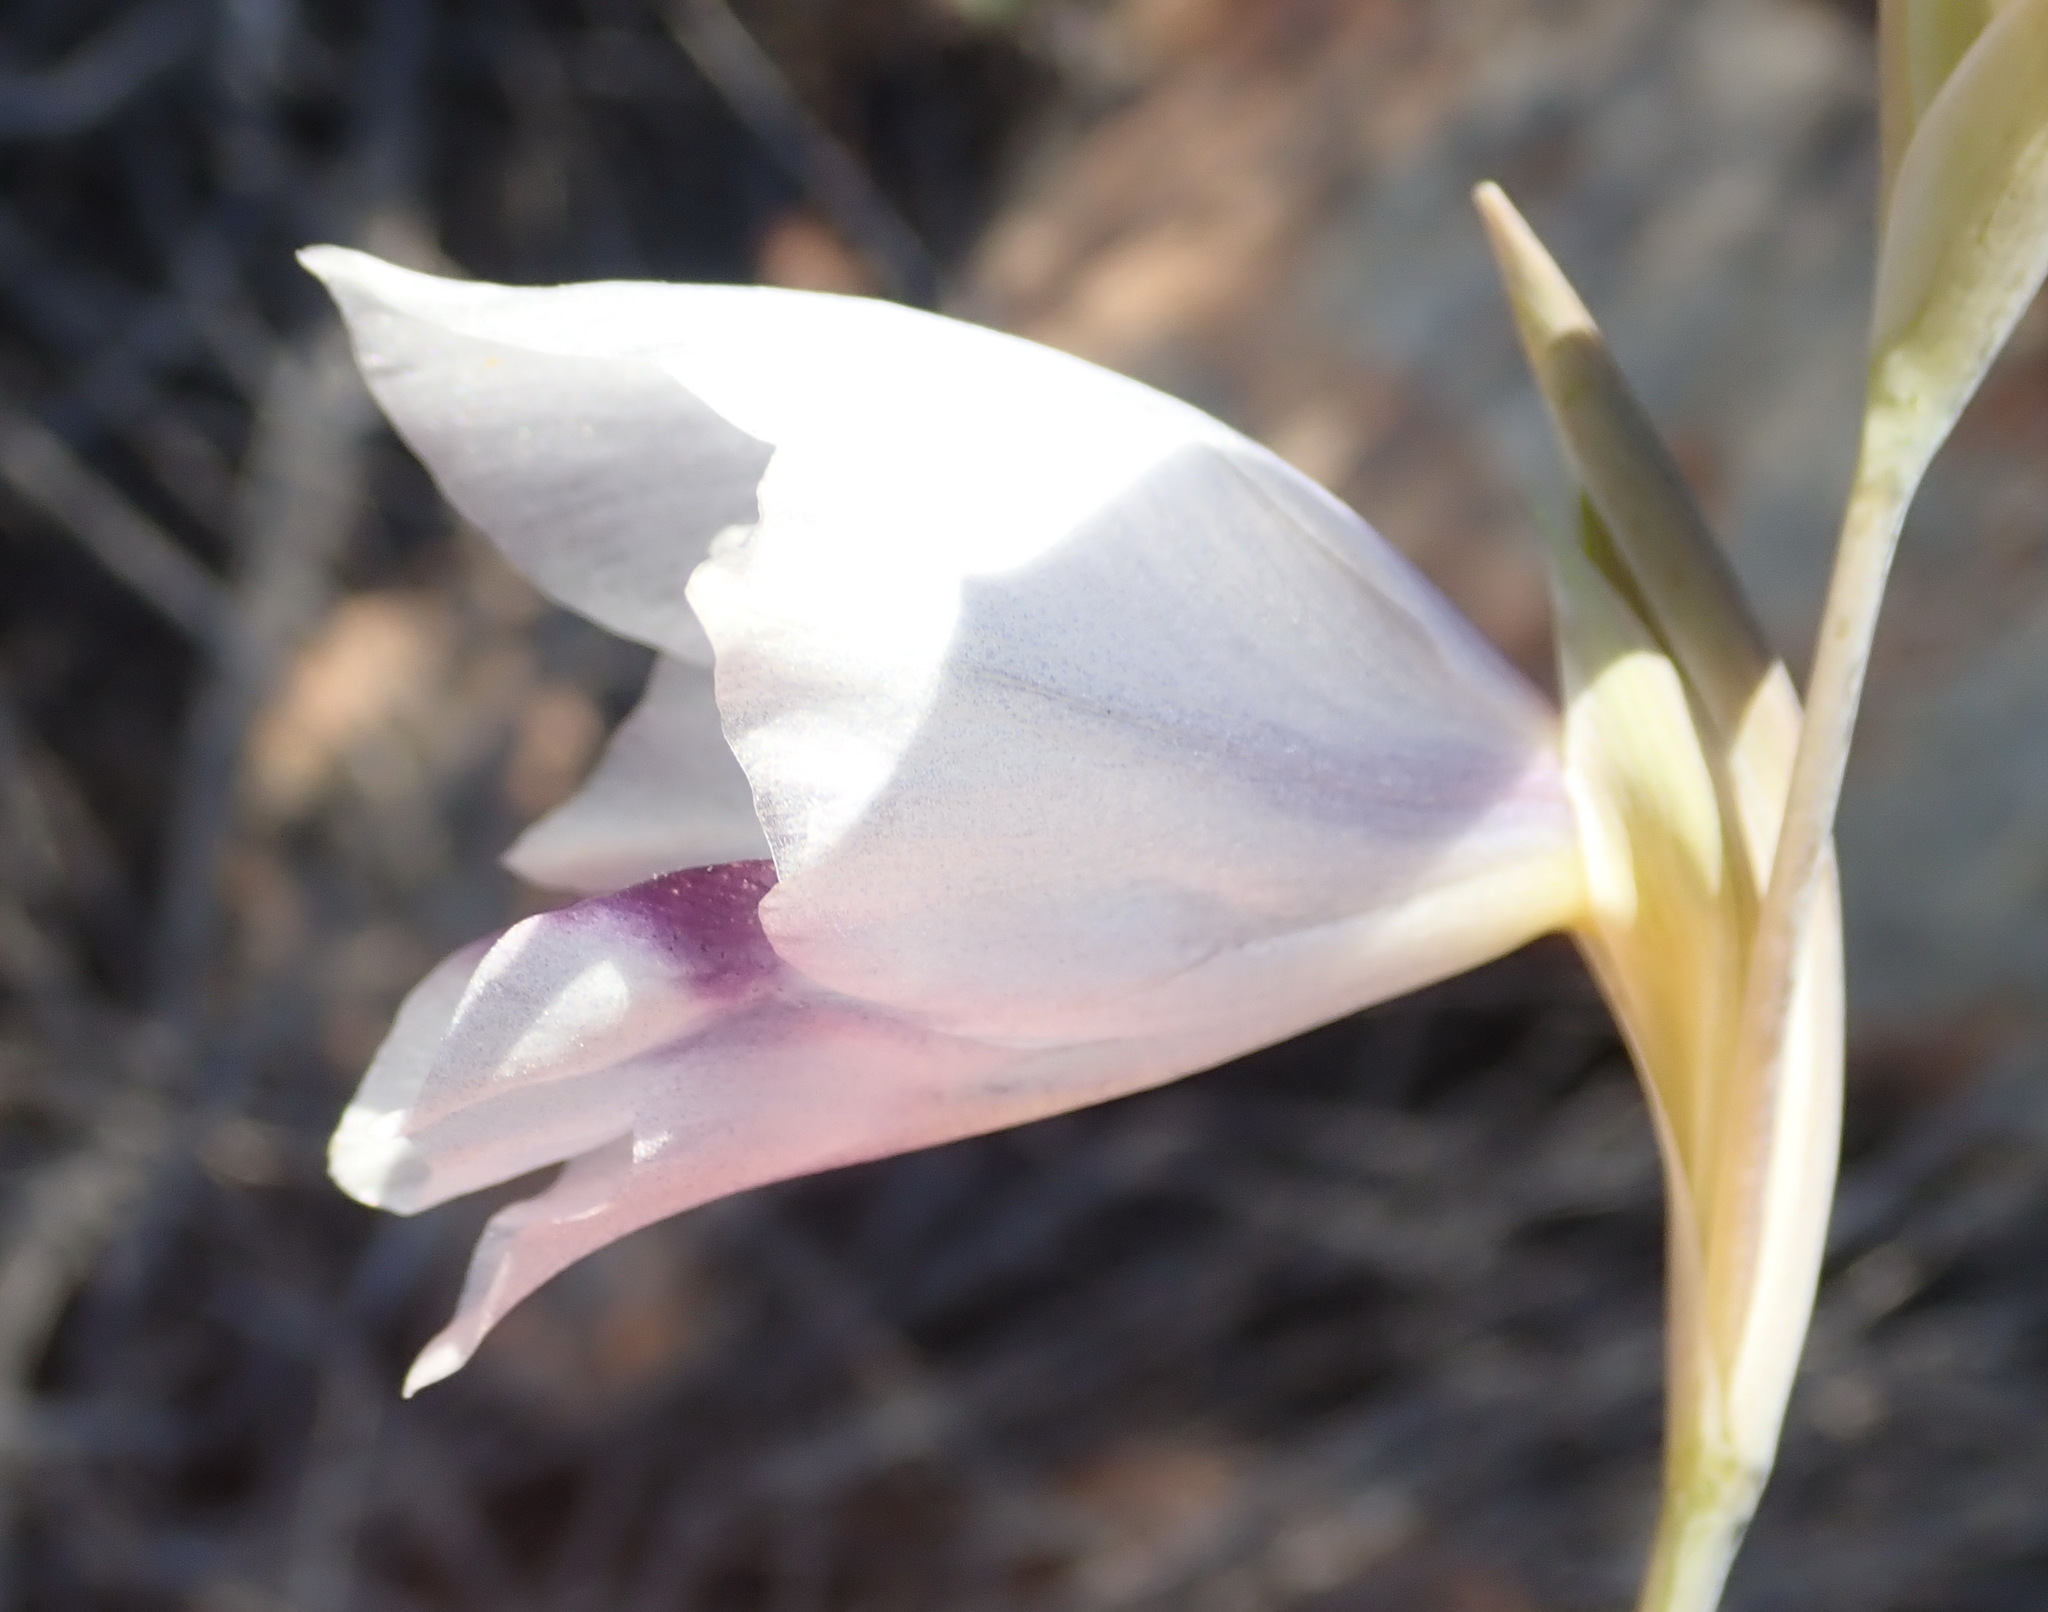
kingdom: Plantae
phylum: Tracheophyta
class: Liliopsida
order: Asparagales
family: Iridaceae
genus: Gladiolus
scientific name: Gladiolus patersoniae
